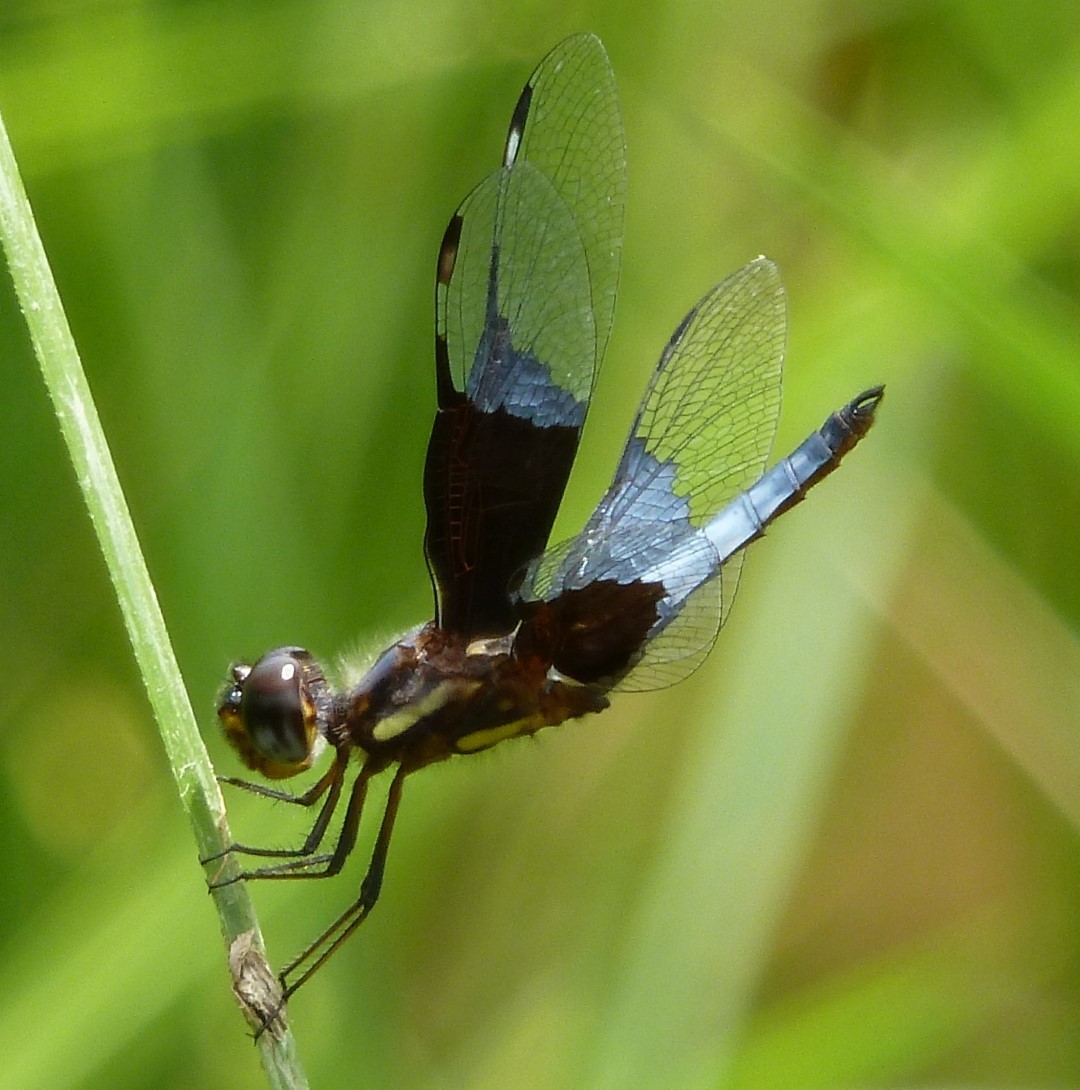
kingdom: Animalia
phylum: Arthropoda
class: Insecta
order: Odonata
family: Libellulidae
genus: Palpopleura
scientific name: Palpopleura vestita
